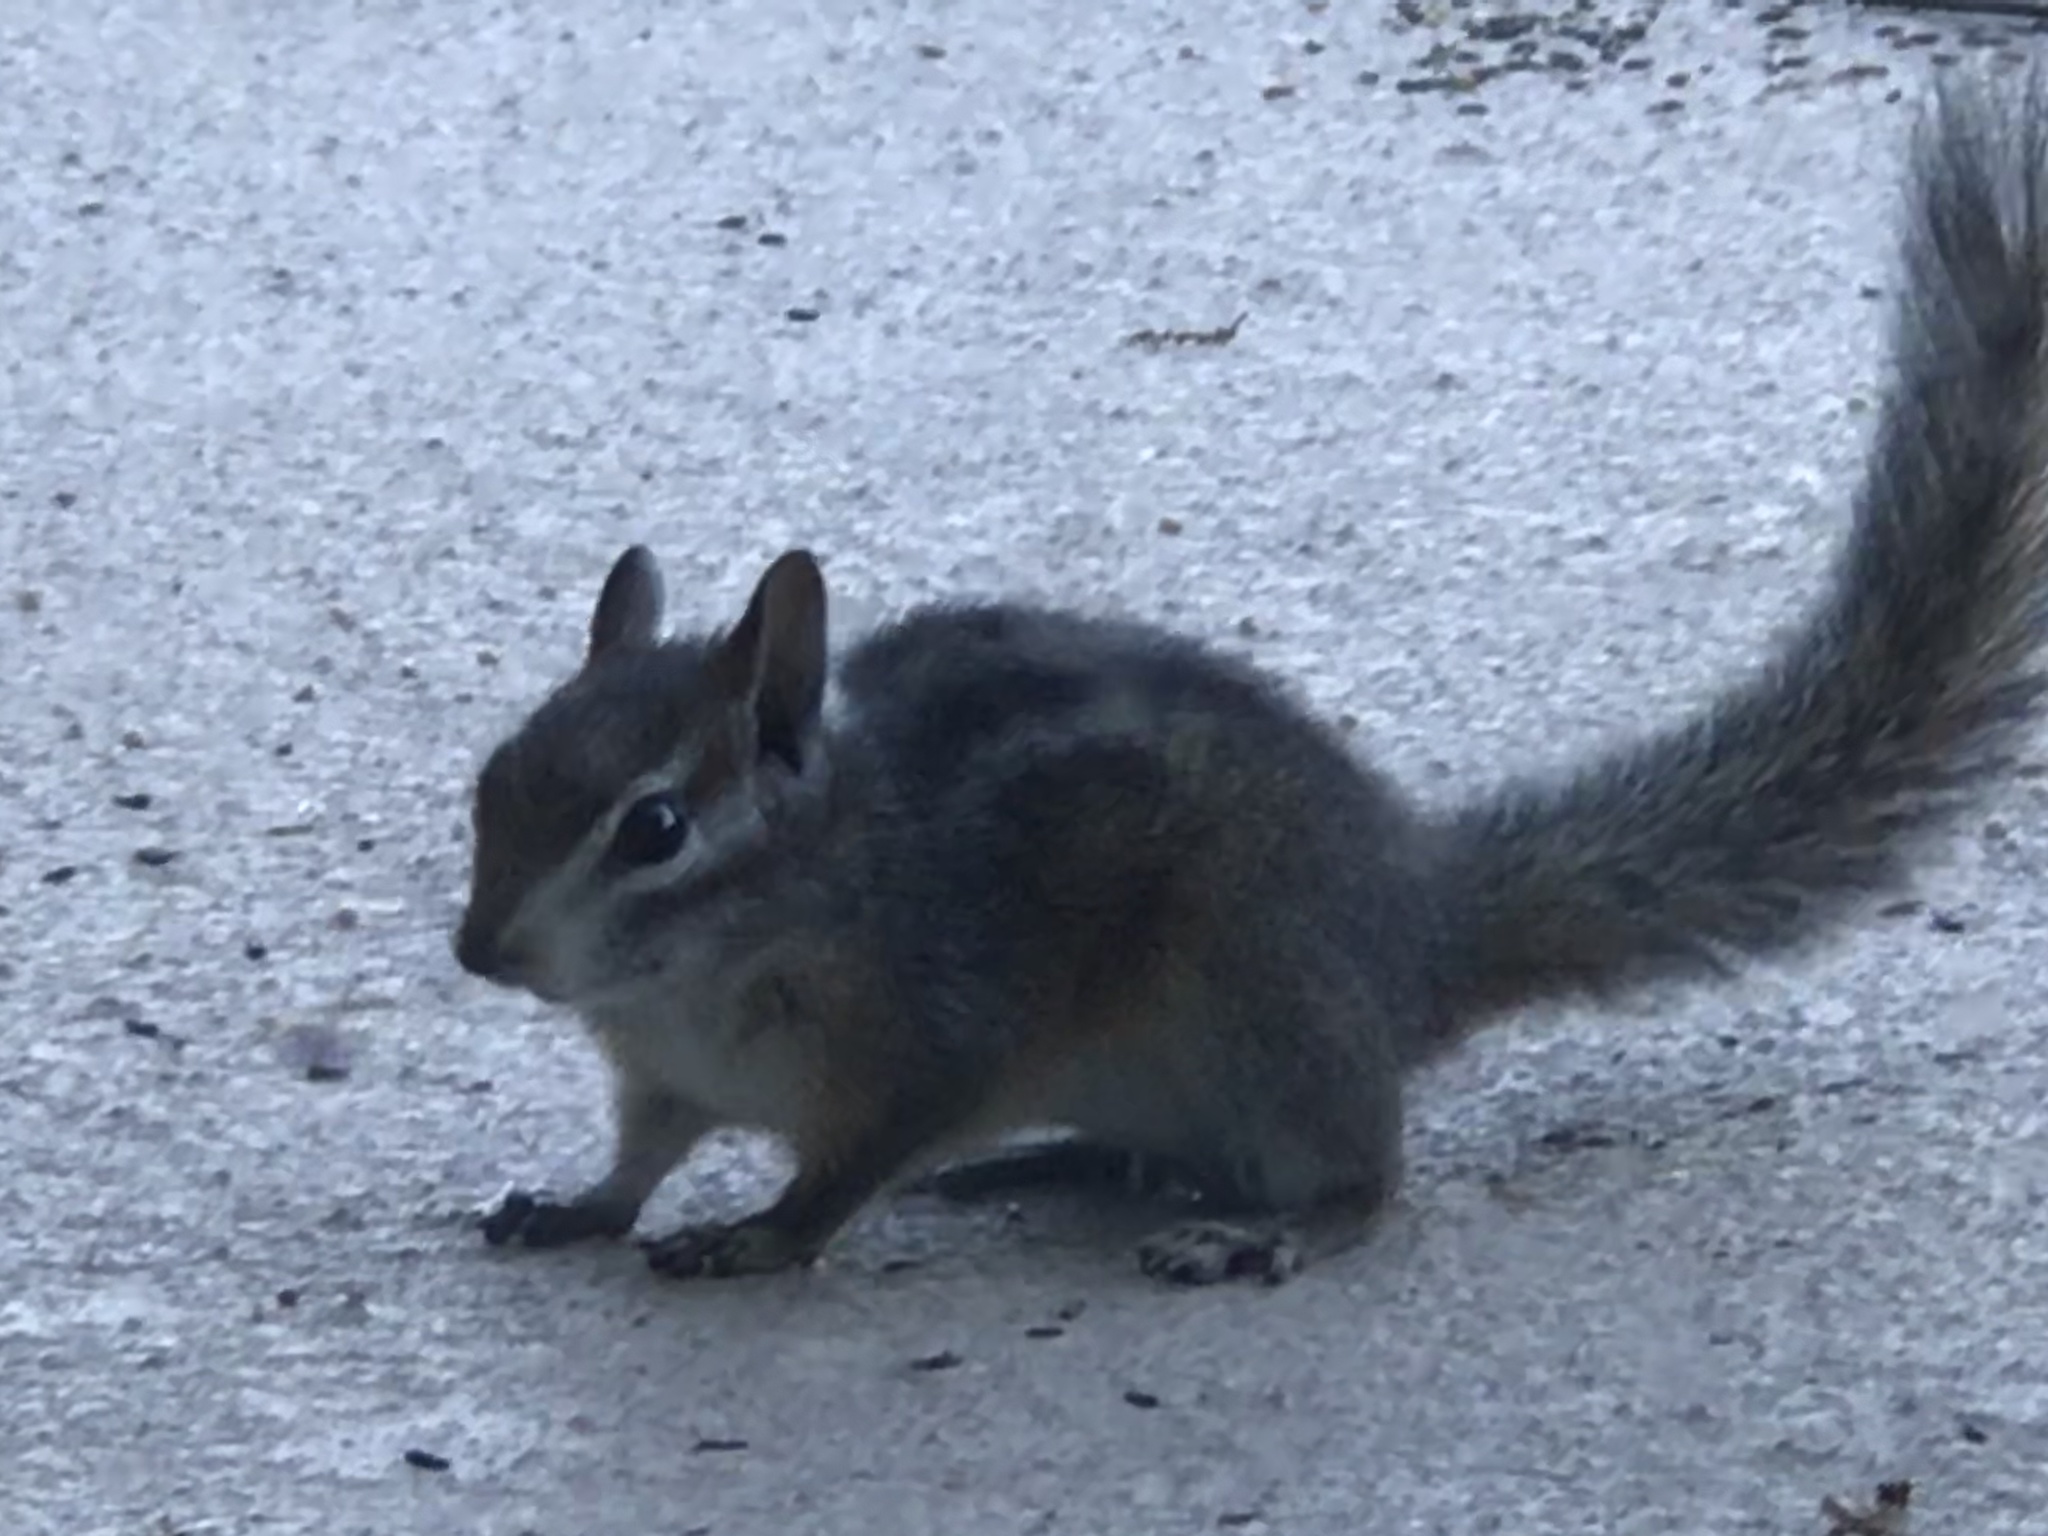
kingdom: Animalia
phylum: Chordata
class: Mammalia
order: Rodentia
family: Sciuridae
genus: Tamias
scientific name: Tamias merriami
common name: Merriam's chipmunk
